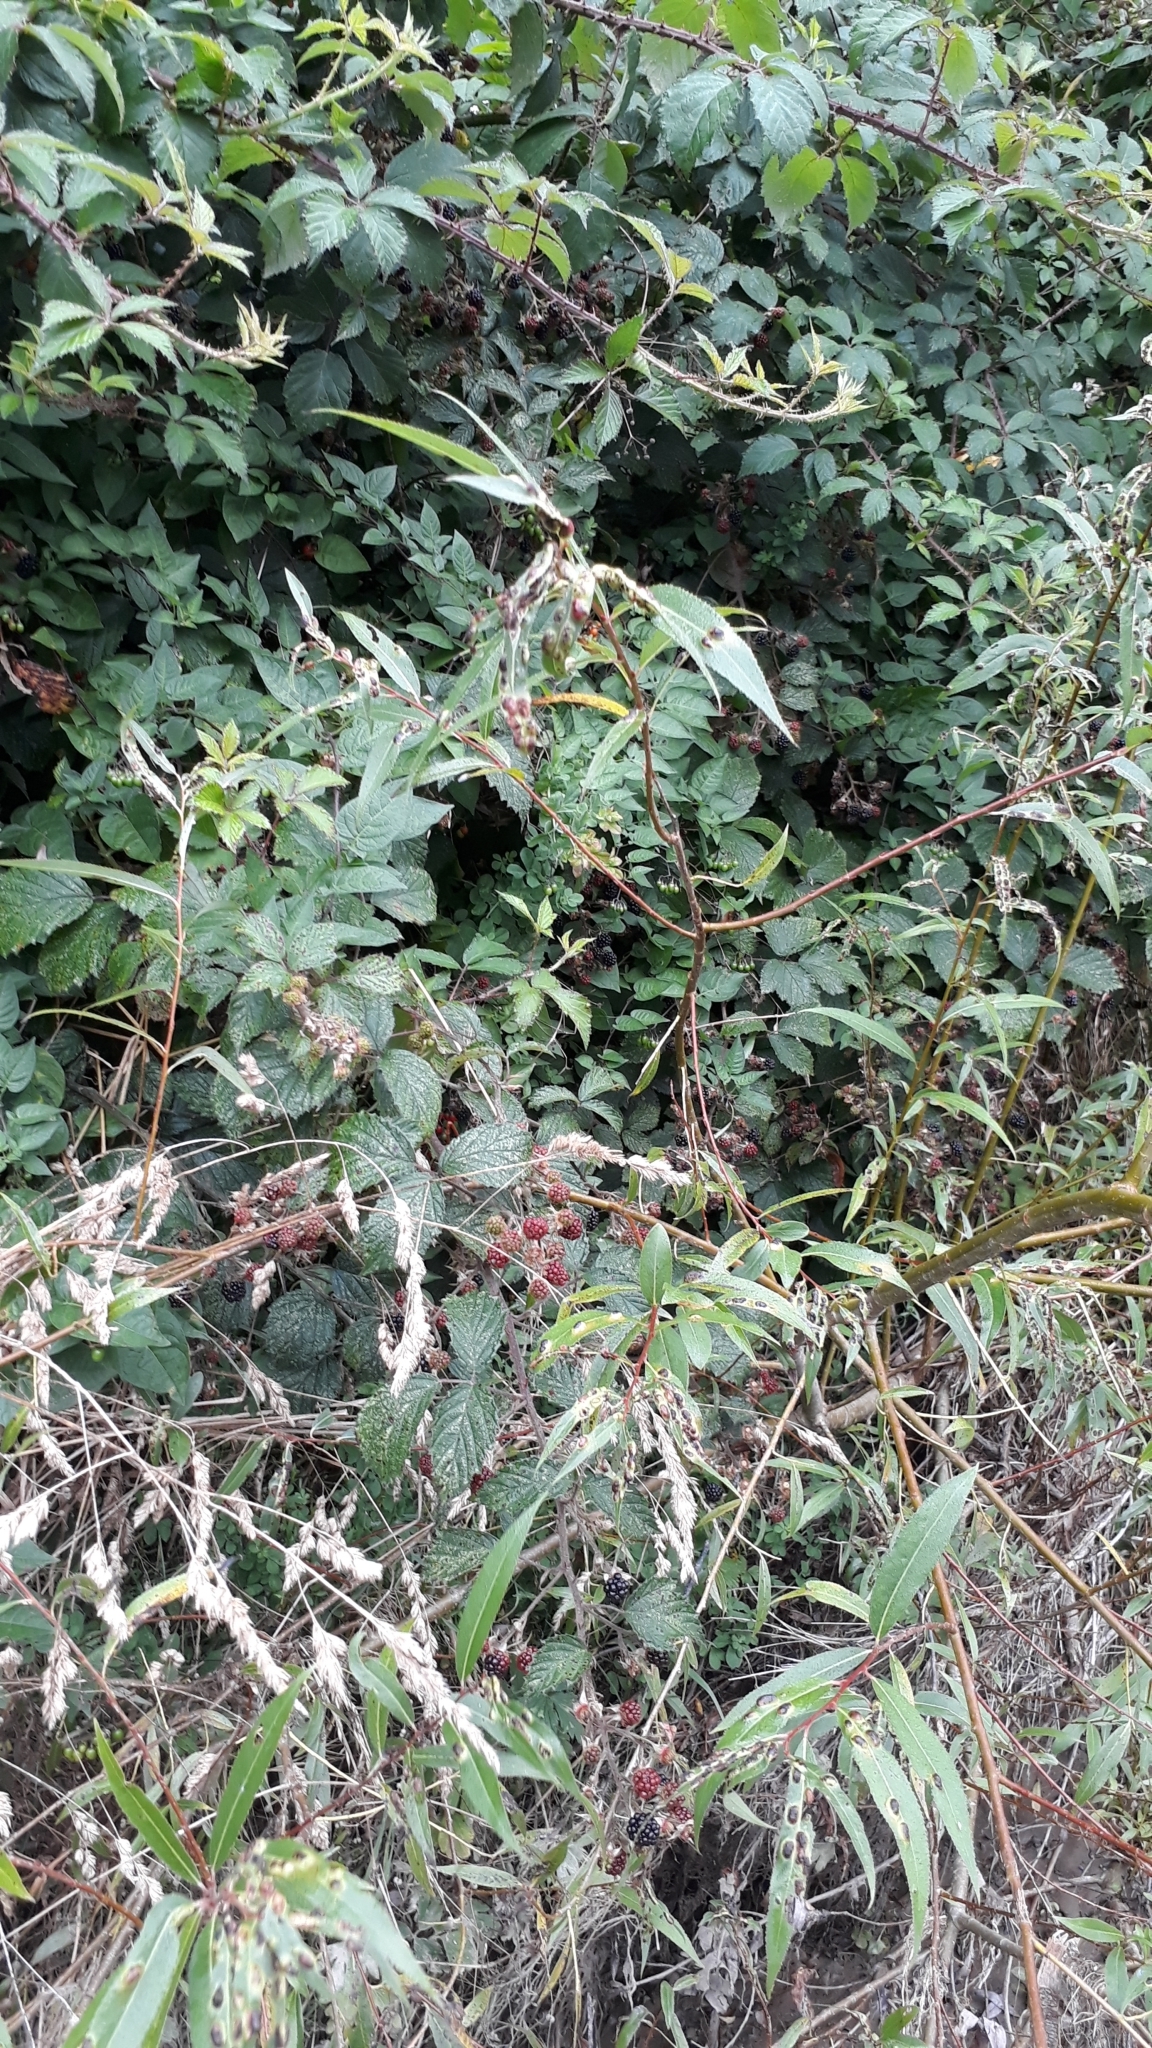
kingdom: Plantae
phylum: Tracheophyta
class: Magnoliopsida
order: Rosales
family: Rosaceae
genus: Rubus
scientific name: Rubus
